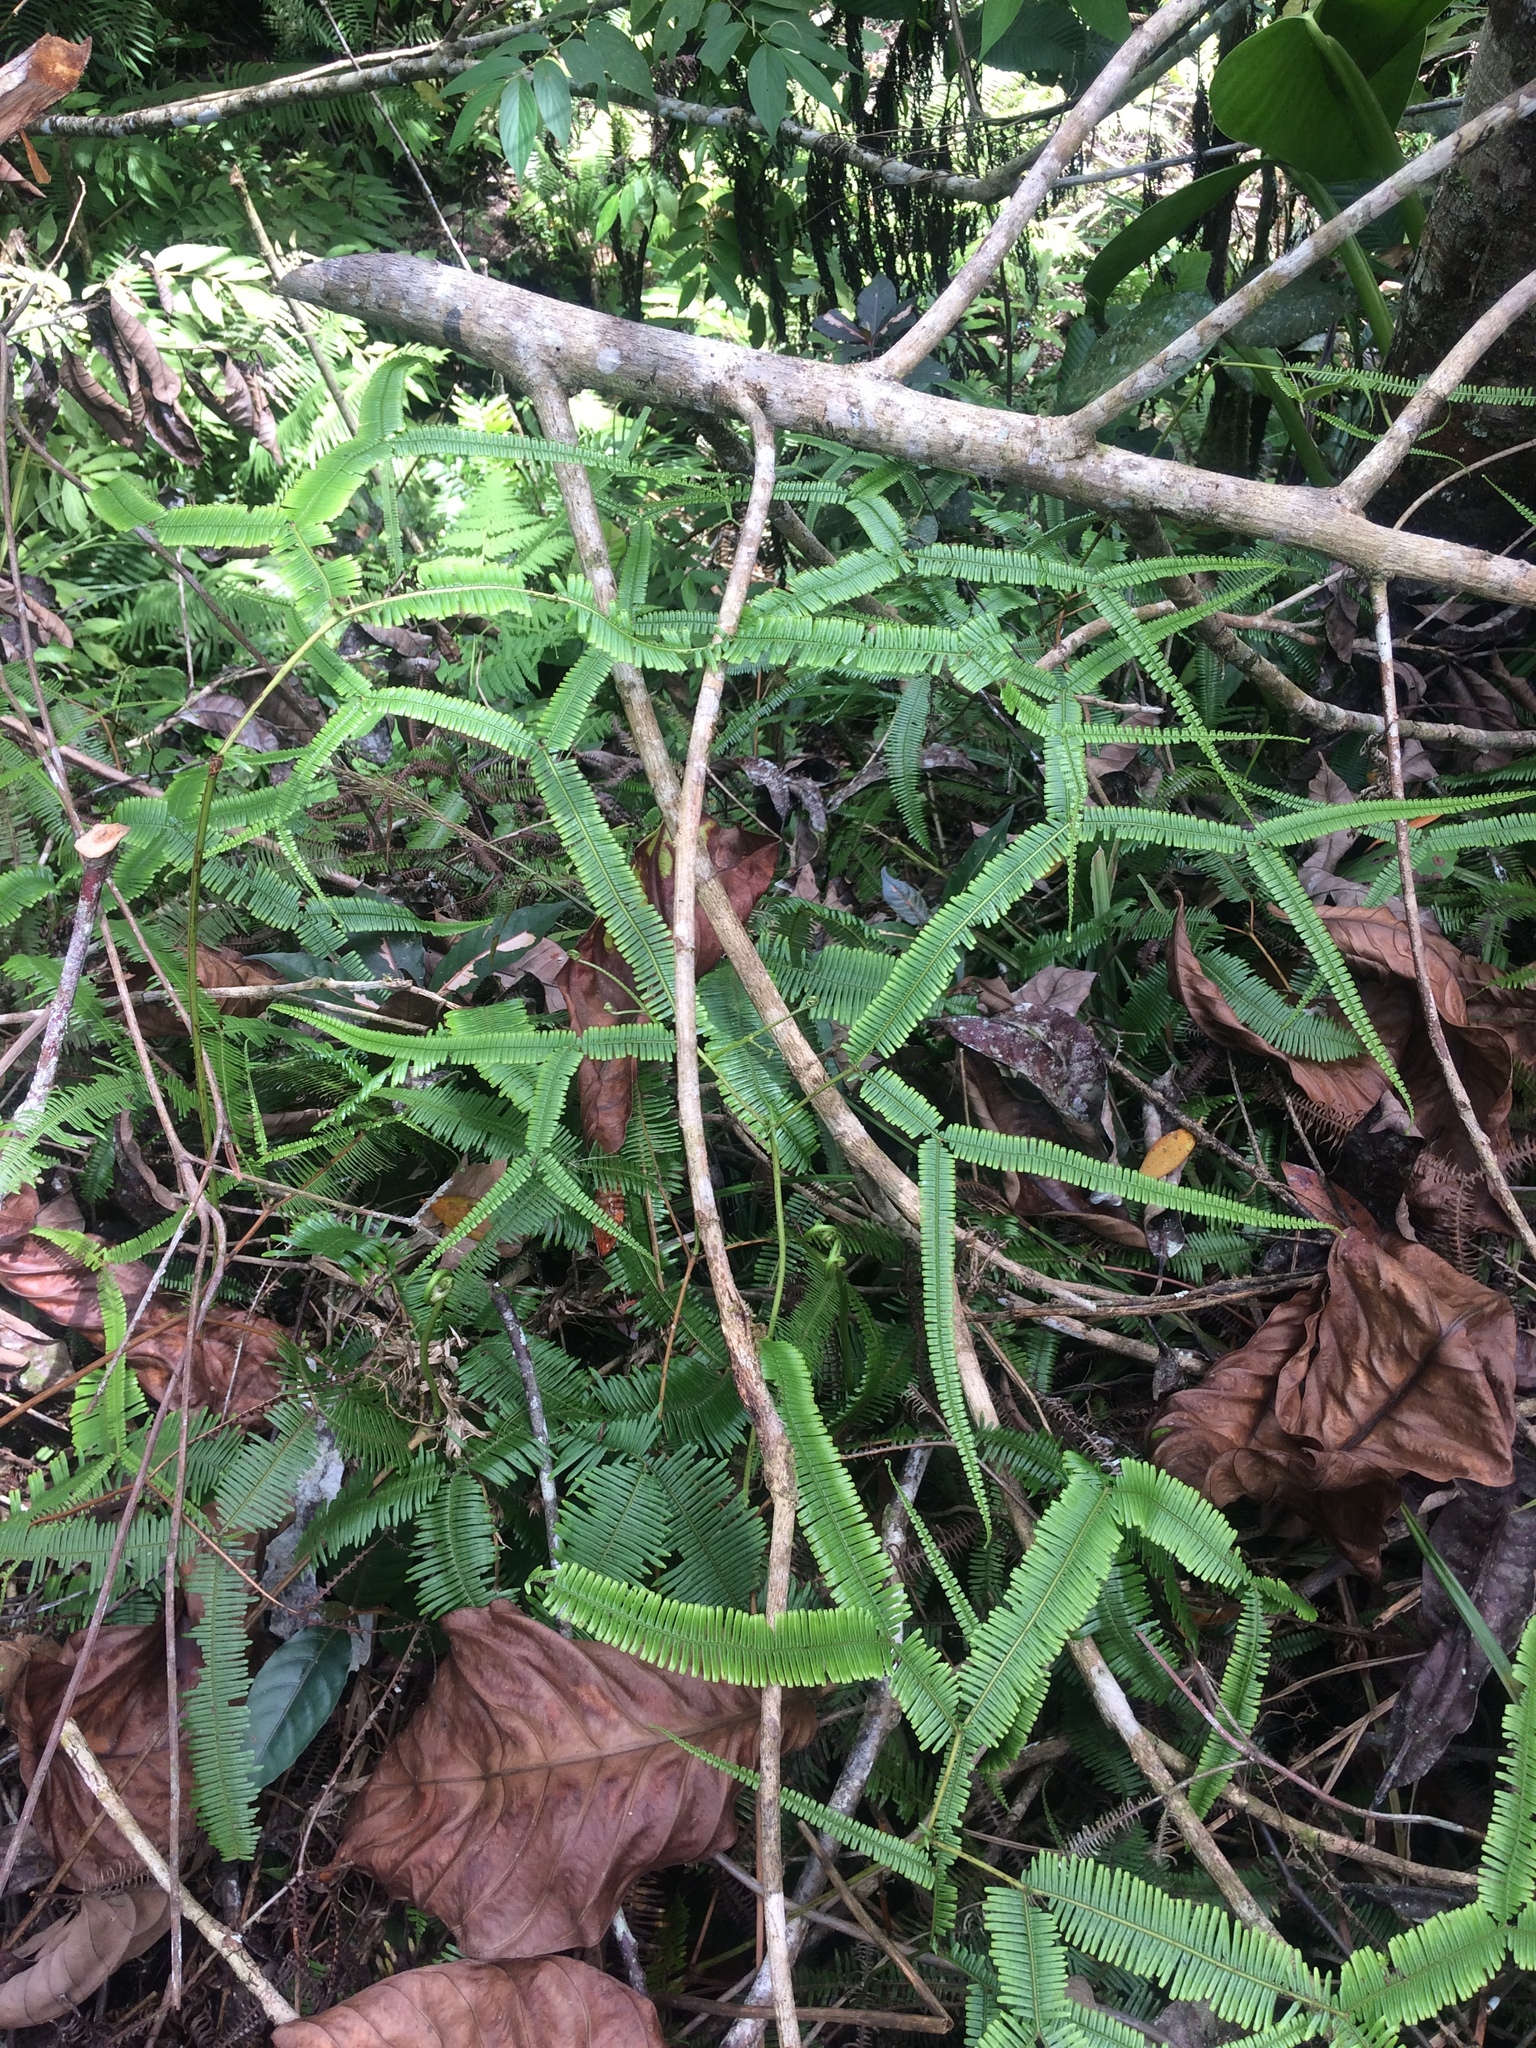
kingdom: Plantae
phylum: Tracheophyta
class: Polypodiopsida
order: Gleicheniales
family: Gleicheniaceae
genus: Sticherus
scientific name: Sticherus truncatus
